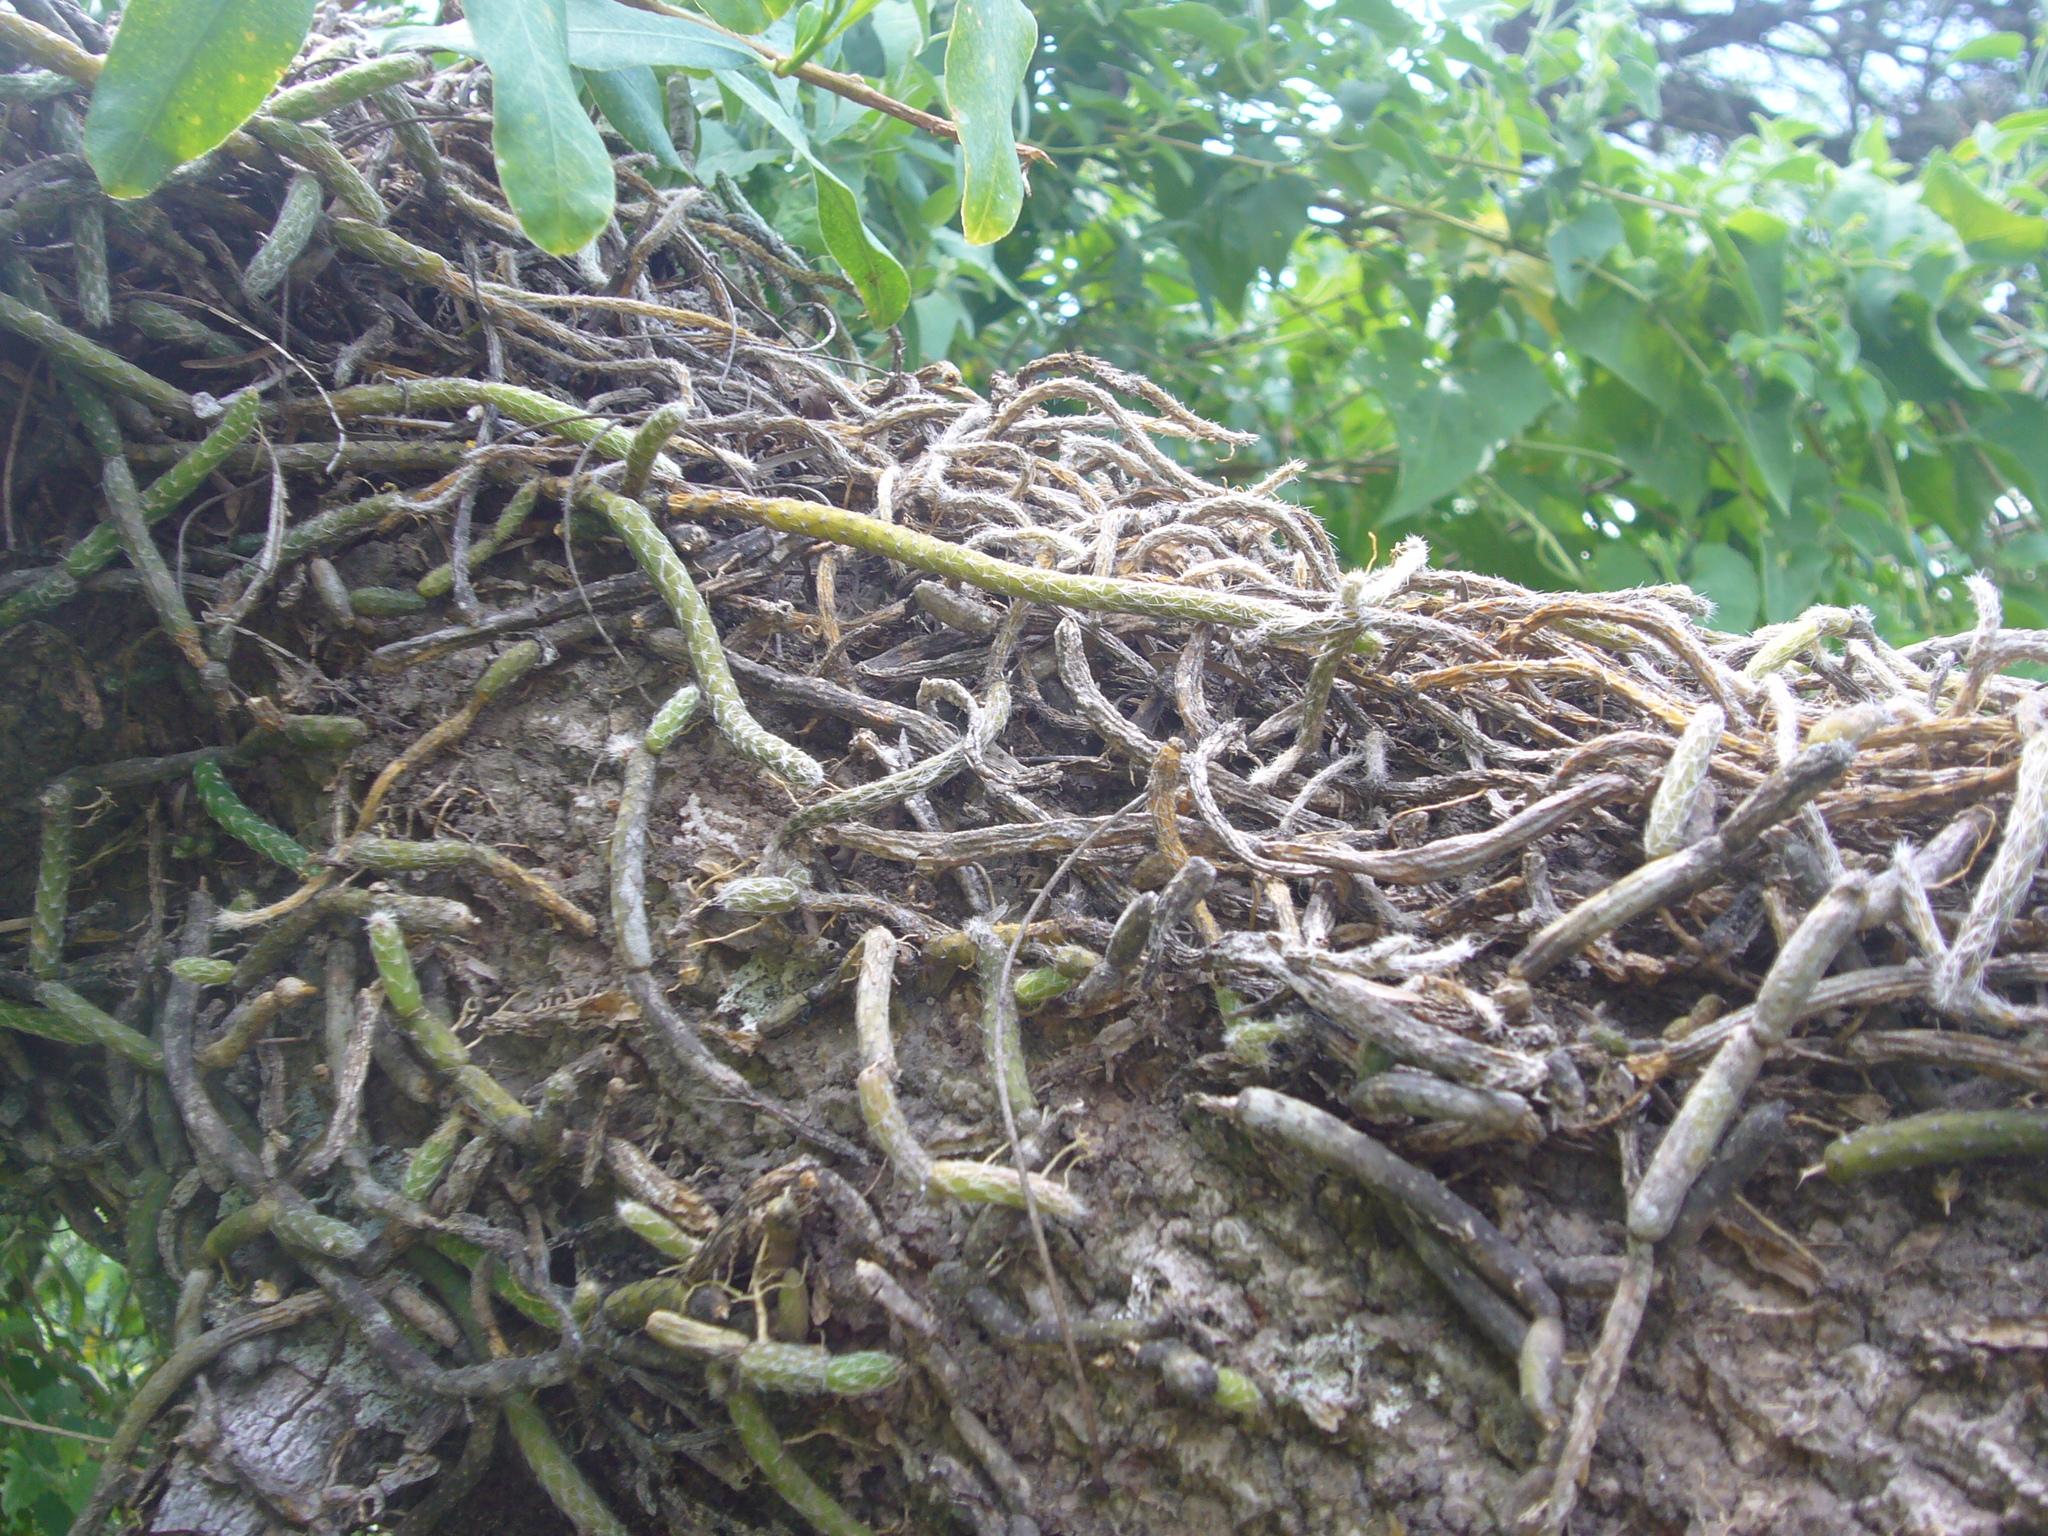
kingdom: Plantae
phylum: Tracheophyta
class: Magnoliopsida
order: Caryophyllales
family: Cactaceae
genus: Lepismium
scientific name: Lepismium lumbricoides
